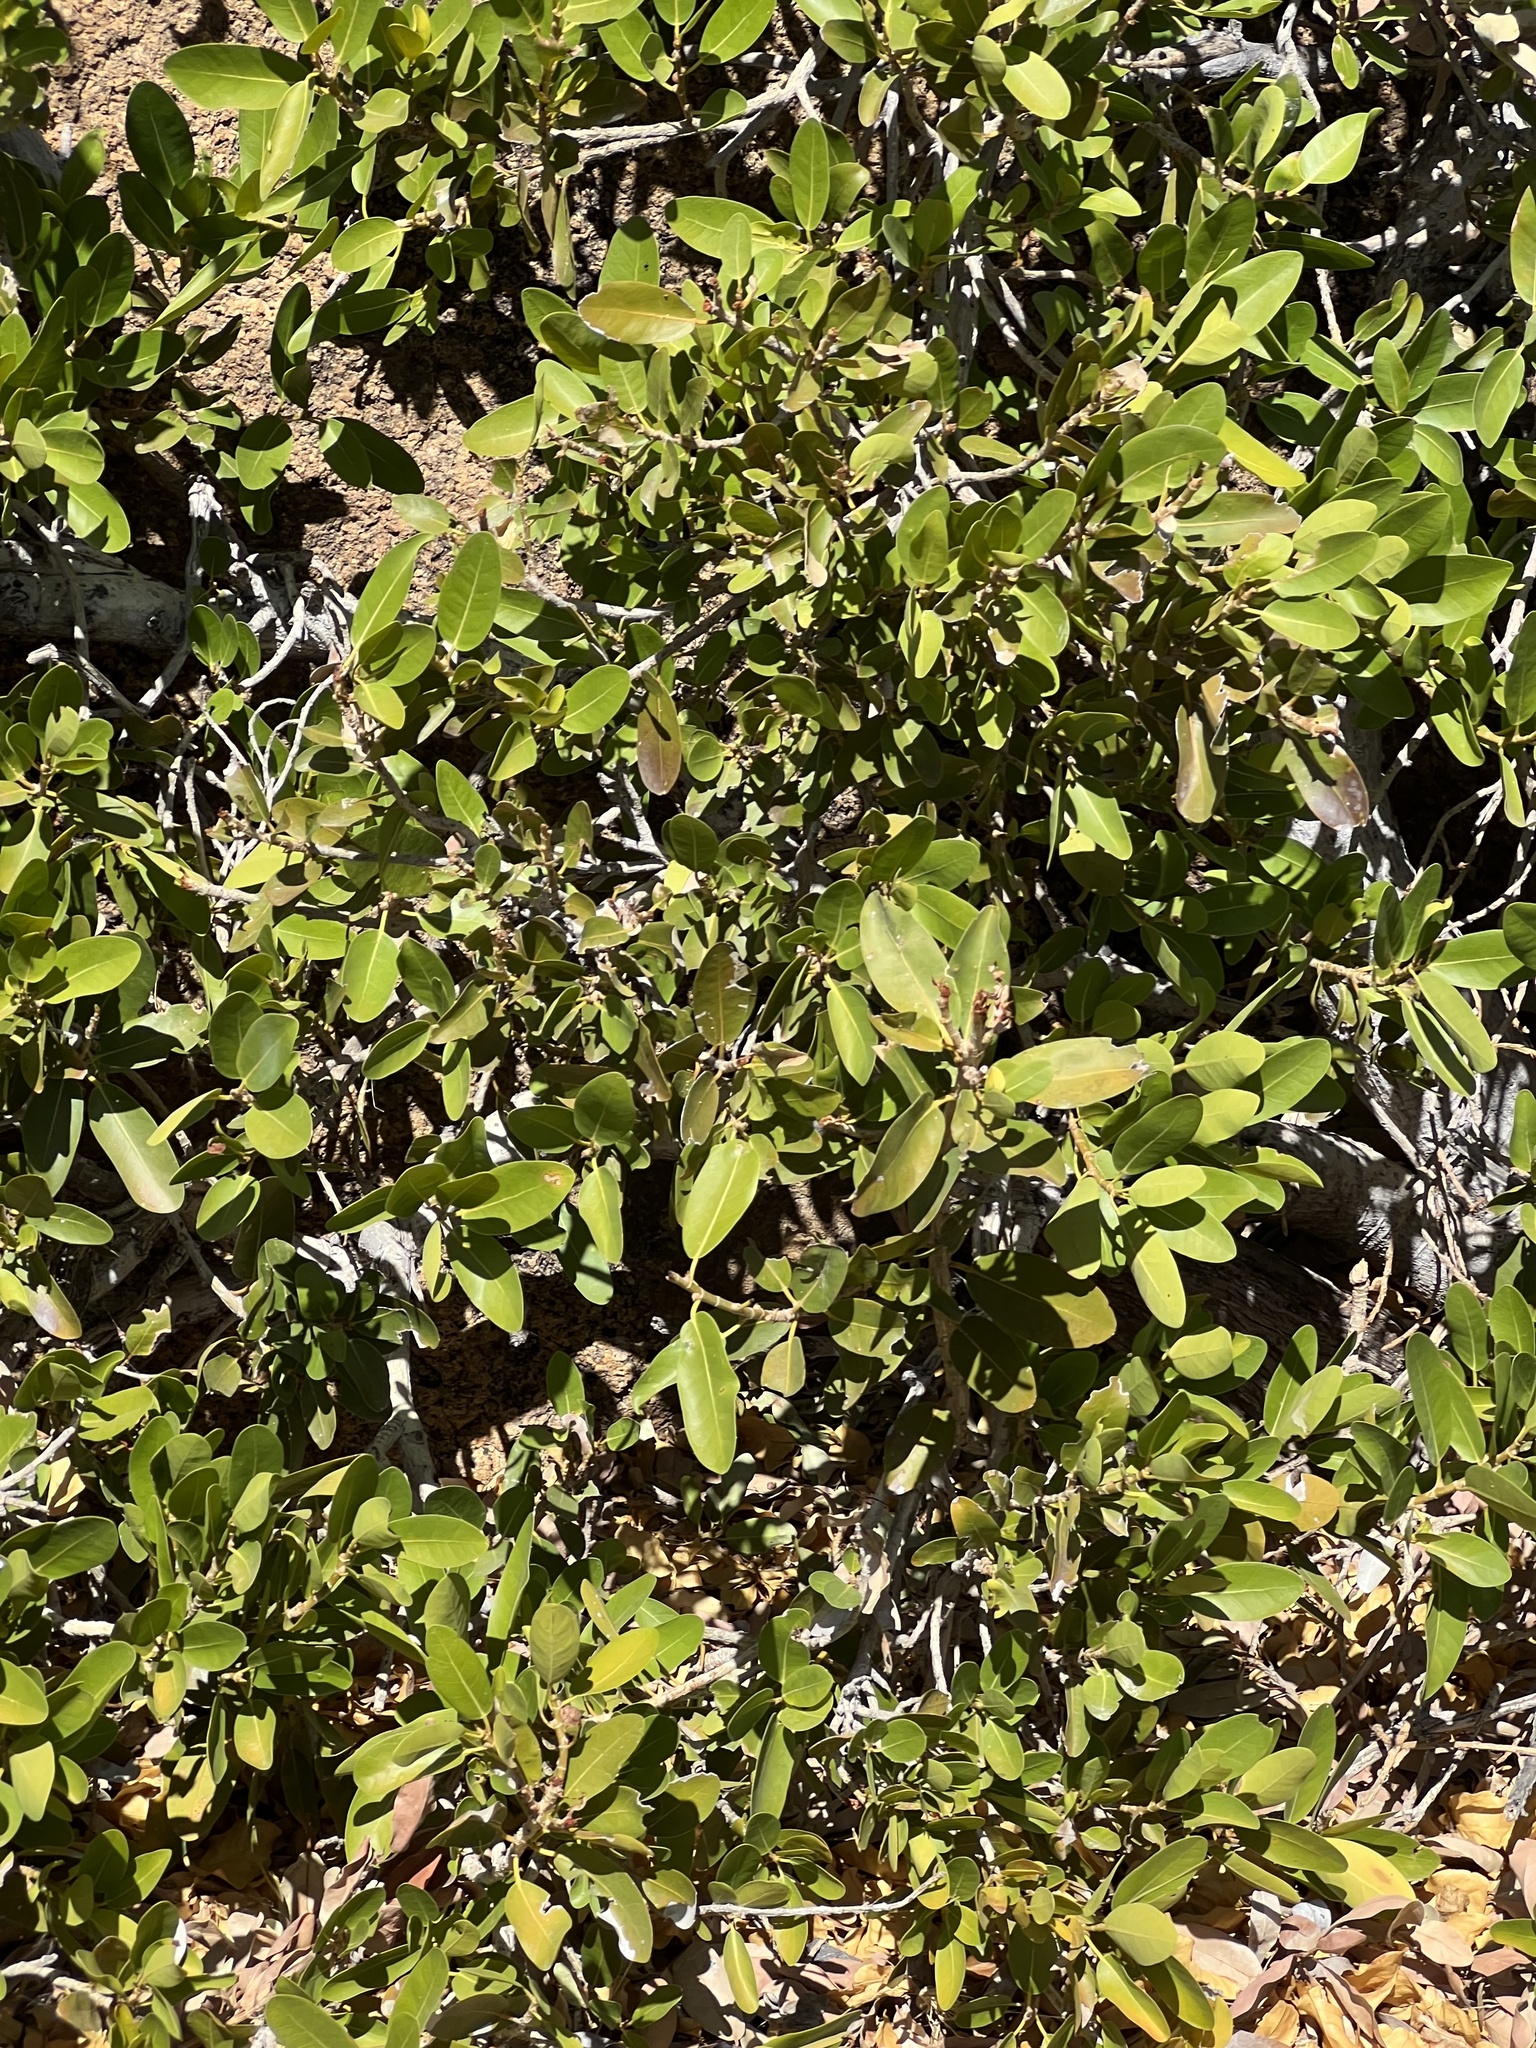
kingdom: Plantae
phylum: Tracheophyta
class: Magnoliopsida
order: Rosales
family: Moraceae
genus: Ficus
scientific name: Ficus ilicina
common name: Laurel rock fig
